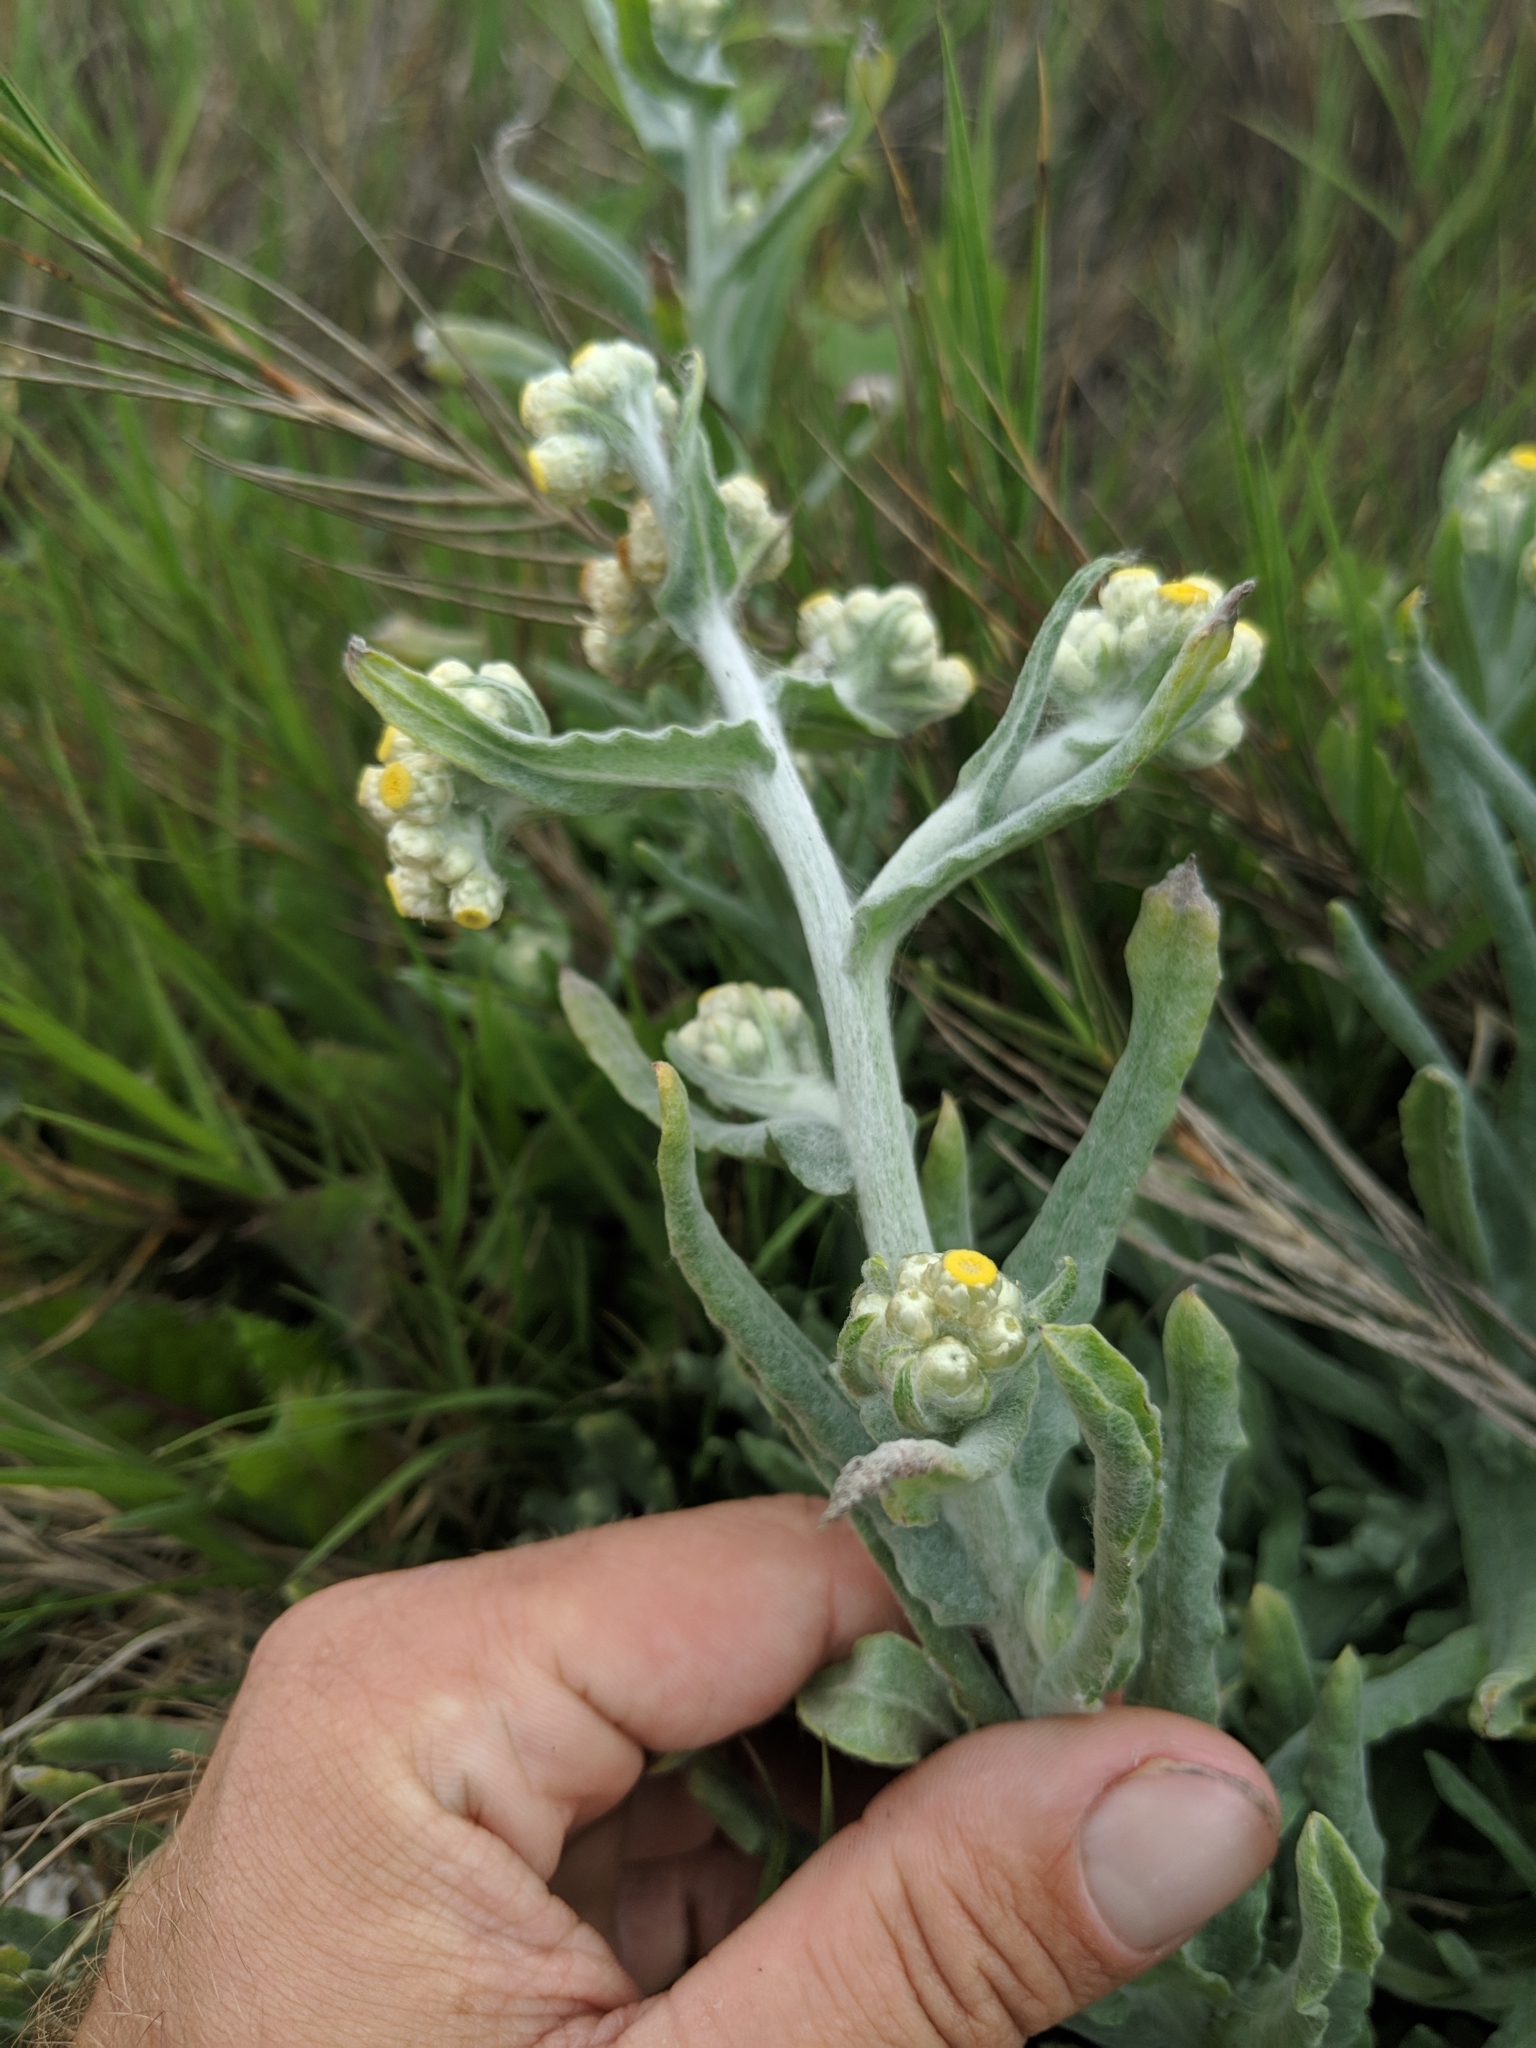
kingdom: Plantae
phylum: Tracheophyta
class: Magnoliopsida
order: Asterales
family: Asteraceae
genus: Pseudognaphalium
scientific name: Pseudognaphalium stramineum
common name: Cotton-batting-plant
